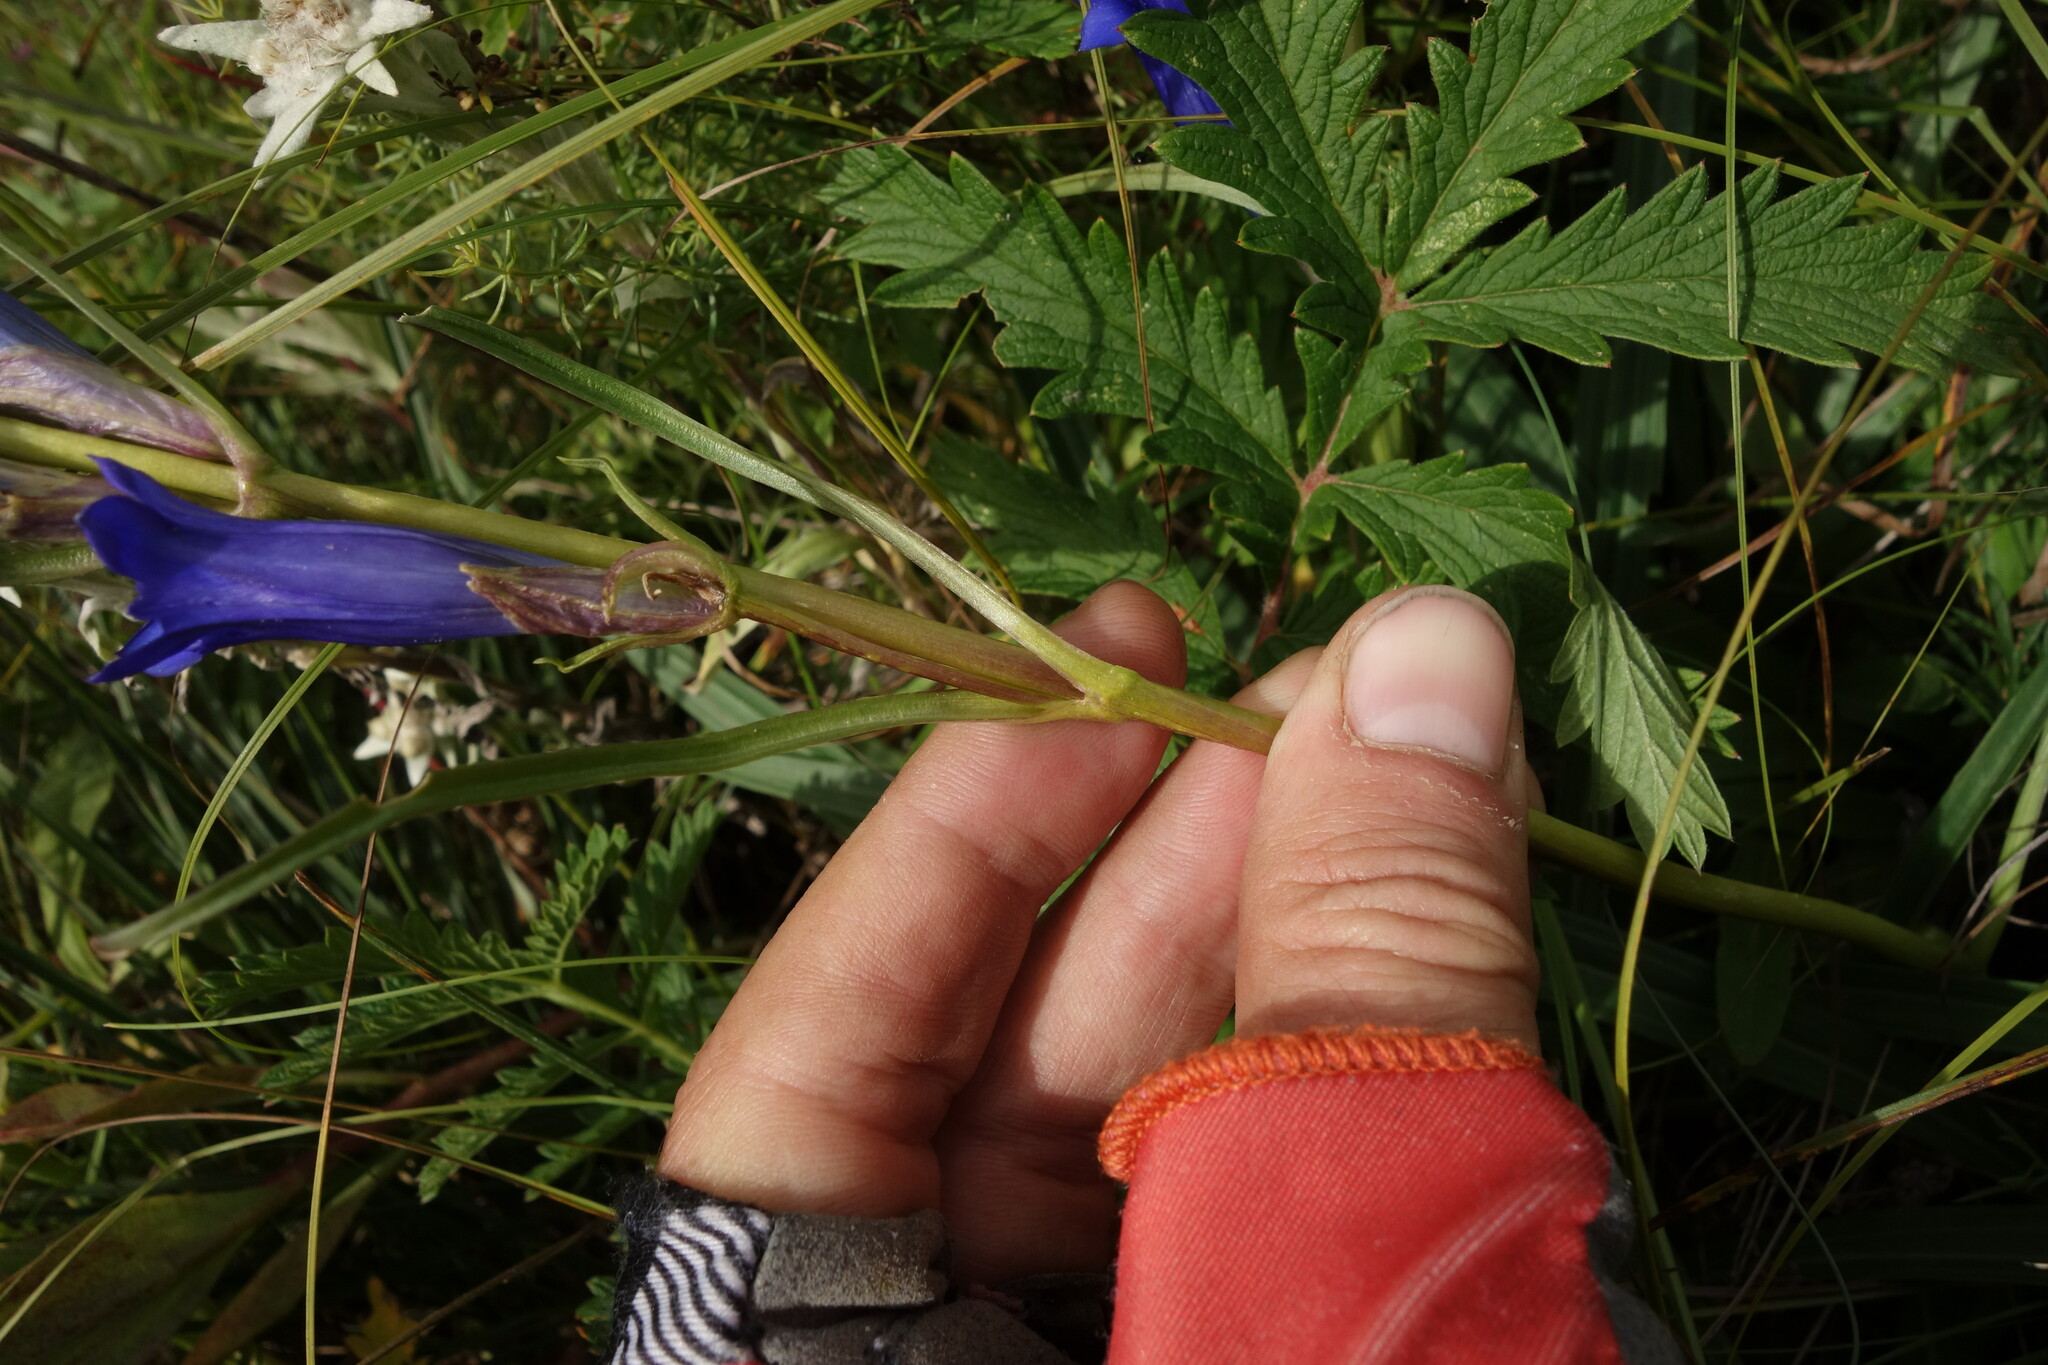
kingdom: Plantae
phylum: Tracheophyta
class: Magnoliopsida
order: Gentianales
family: Gentianaceae
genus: Gentiana
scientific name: Gentiana decumbens
